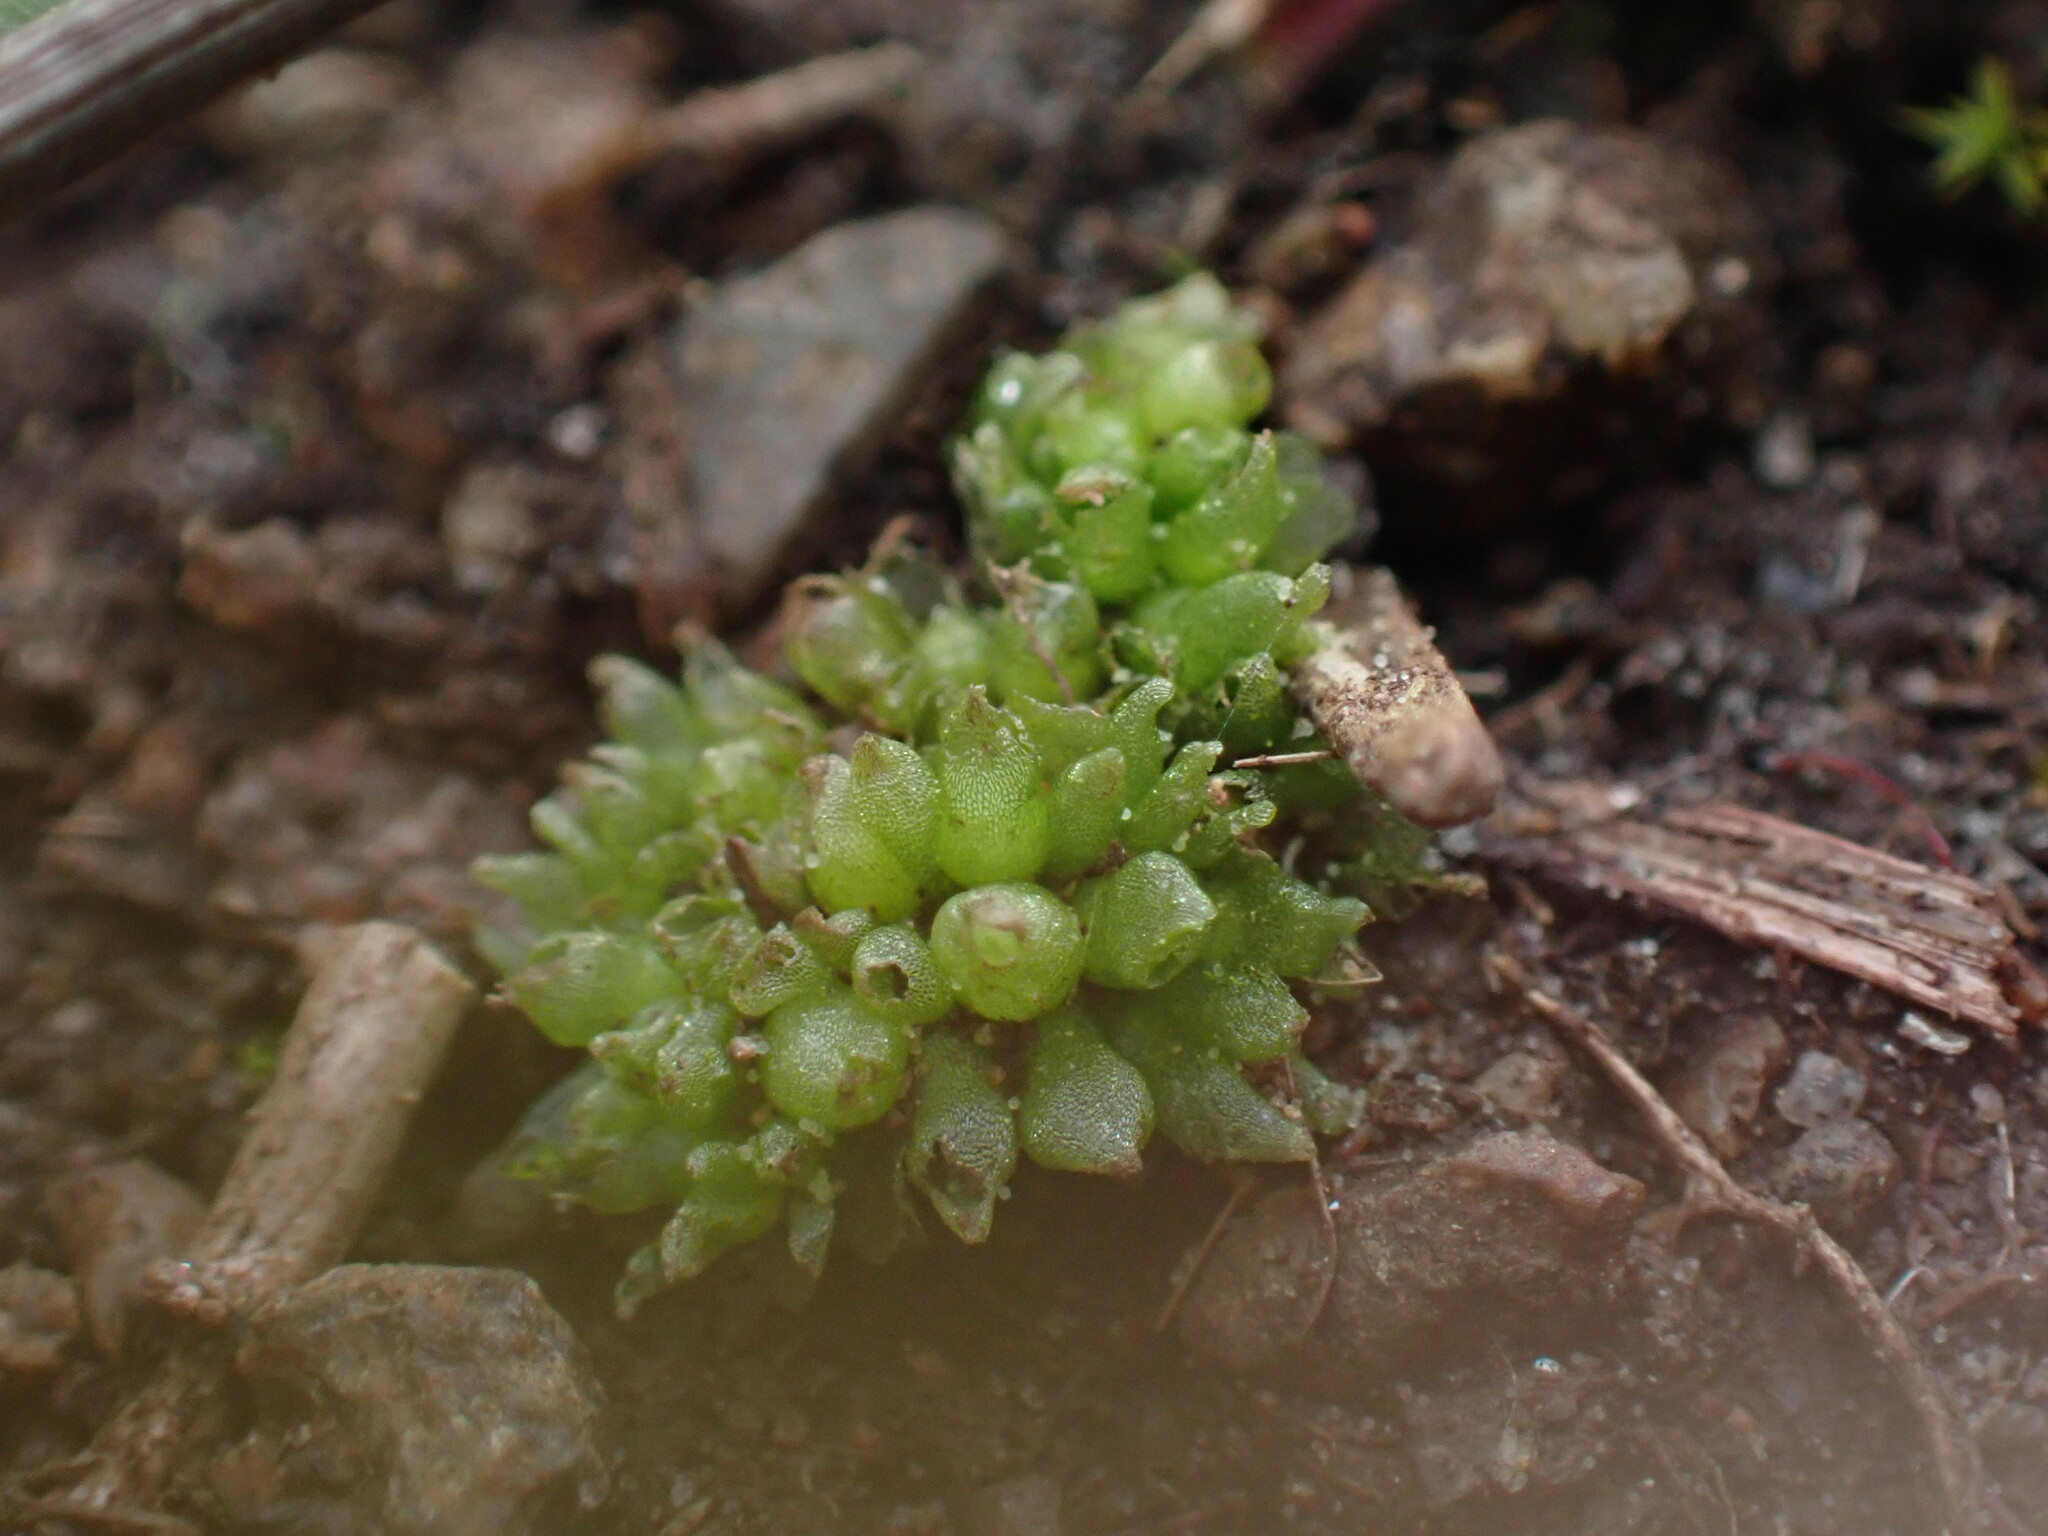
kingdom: Plantae
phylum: Marchantiophyta
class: Marchantiopsida
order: Sphaerocarpales
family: Sphaerocarpaceae
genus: Sphaerocarpos
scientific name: Sphaerocarpos texanus
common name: Texas balloonwort
